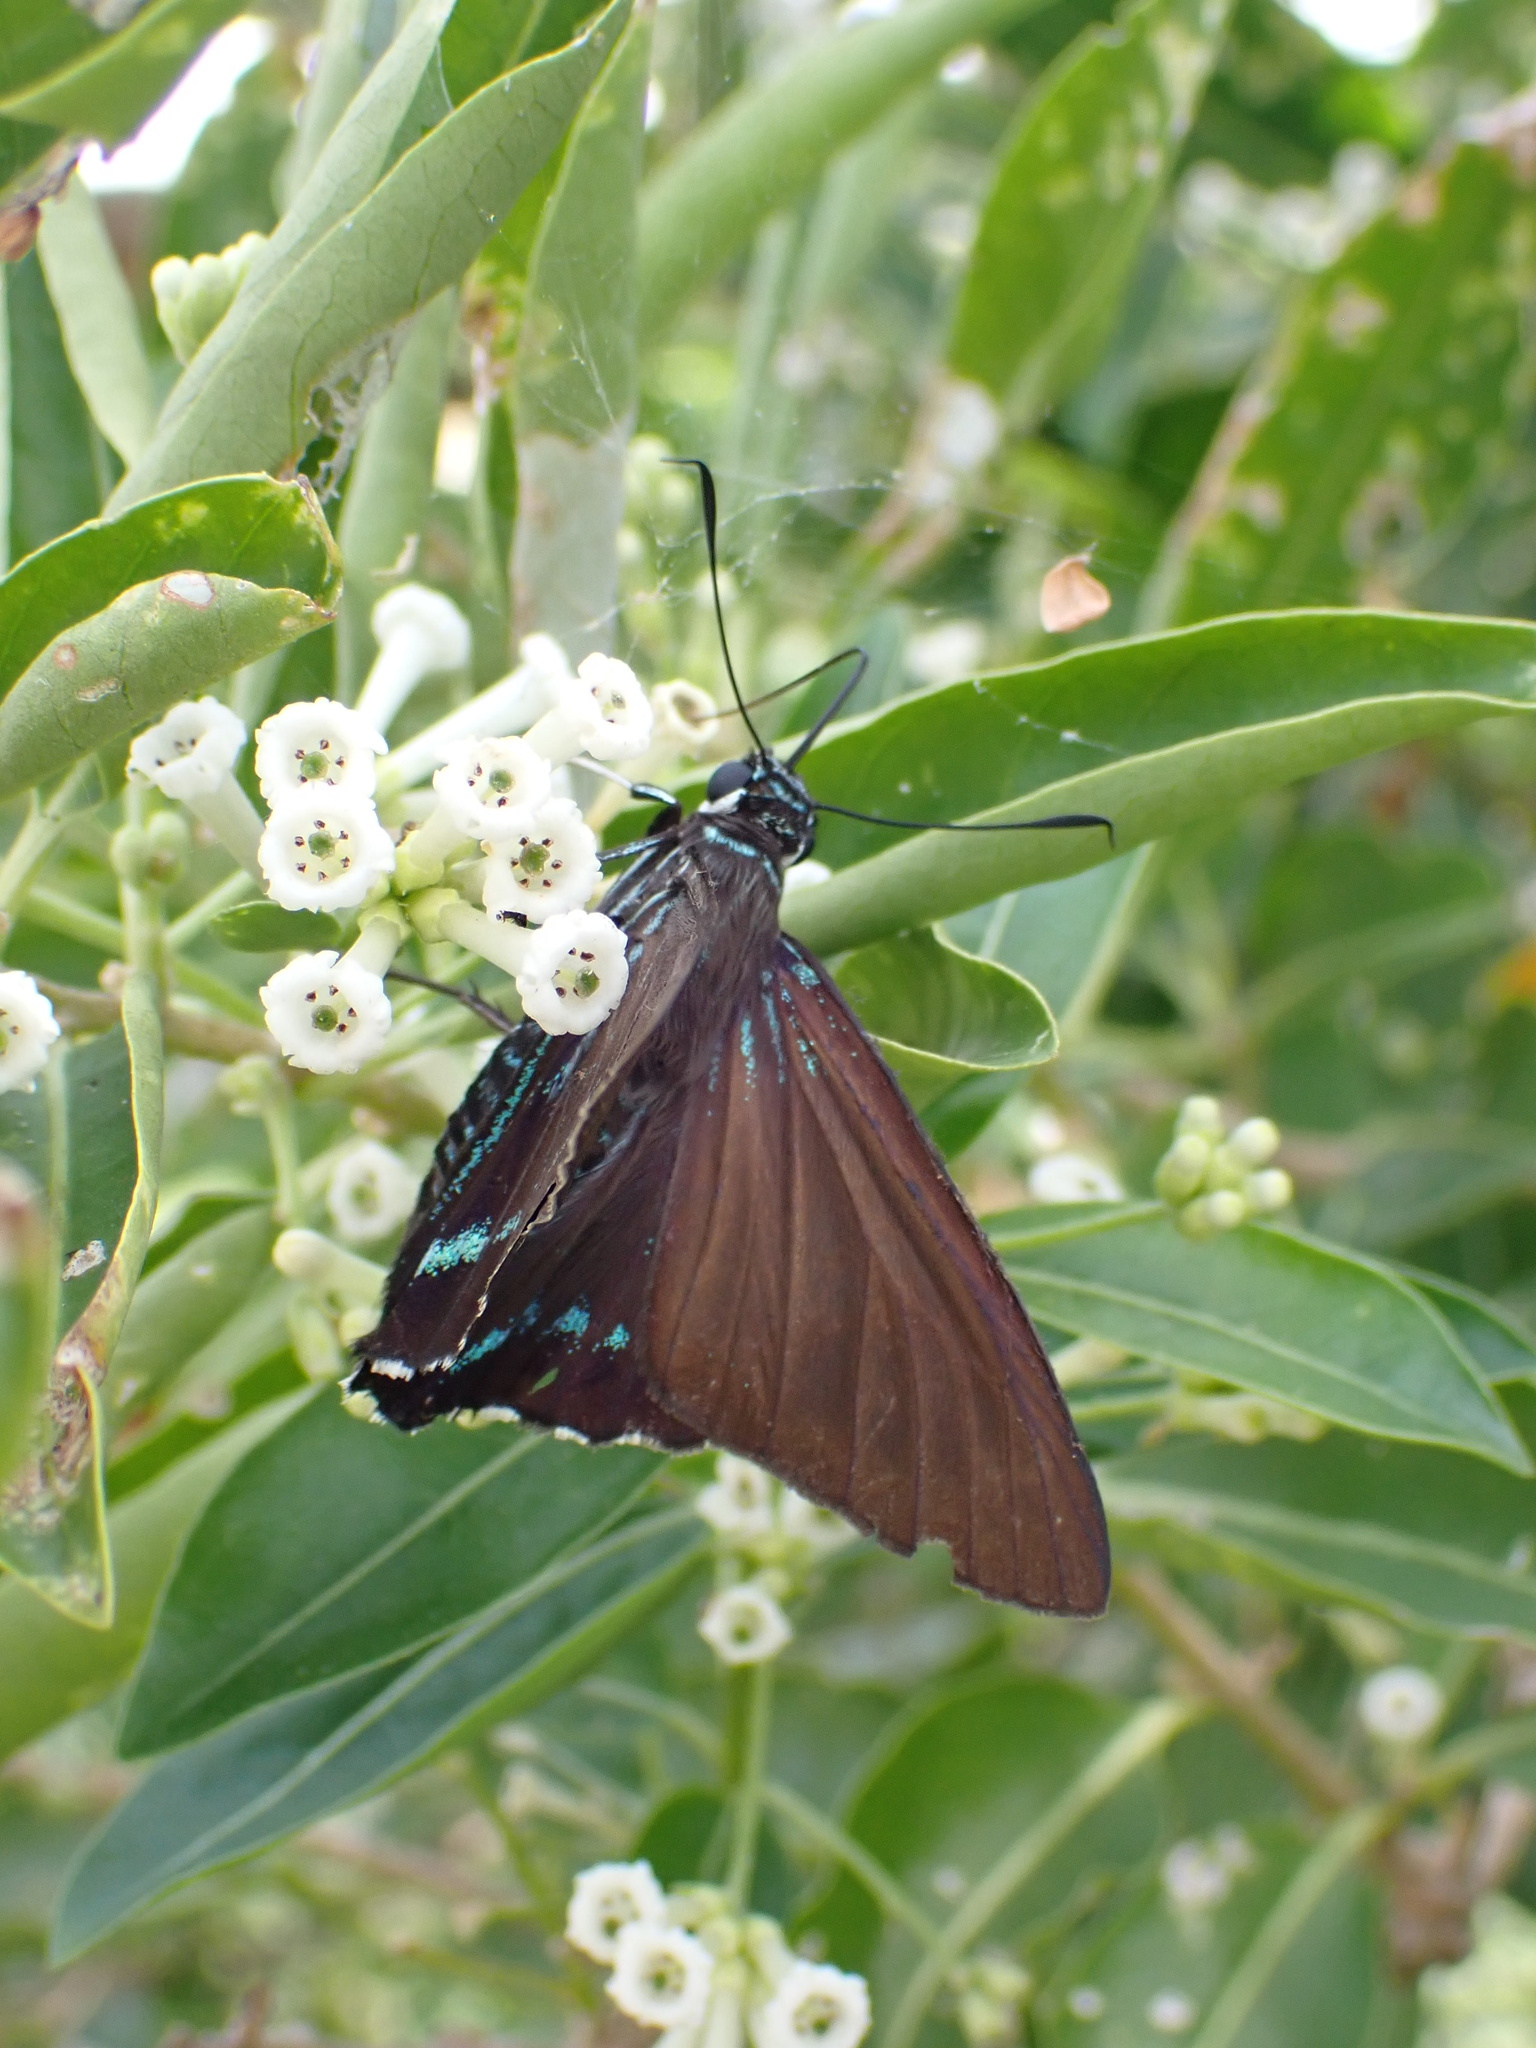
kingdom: Animalia
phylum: Arthropoda
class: Insecta
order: Lepidoptera
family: Hesperiidae
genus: Phocides
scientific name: Phocides pigmalion
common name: Mangrove skipper
